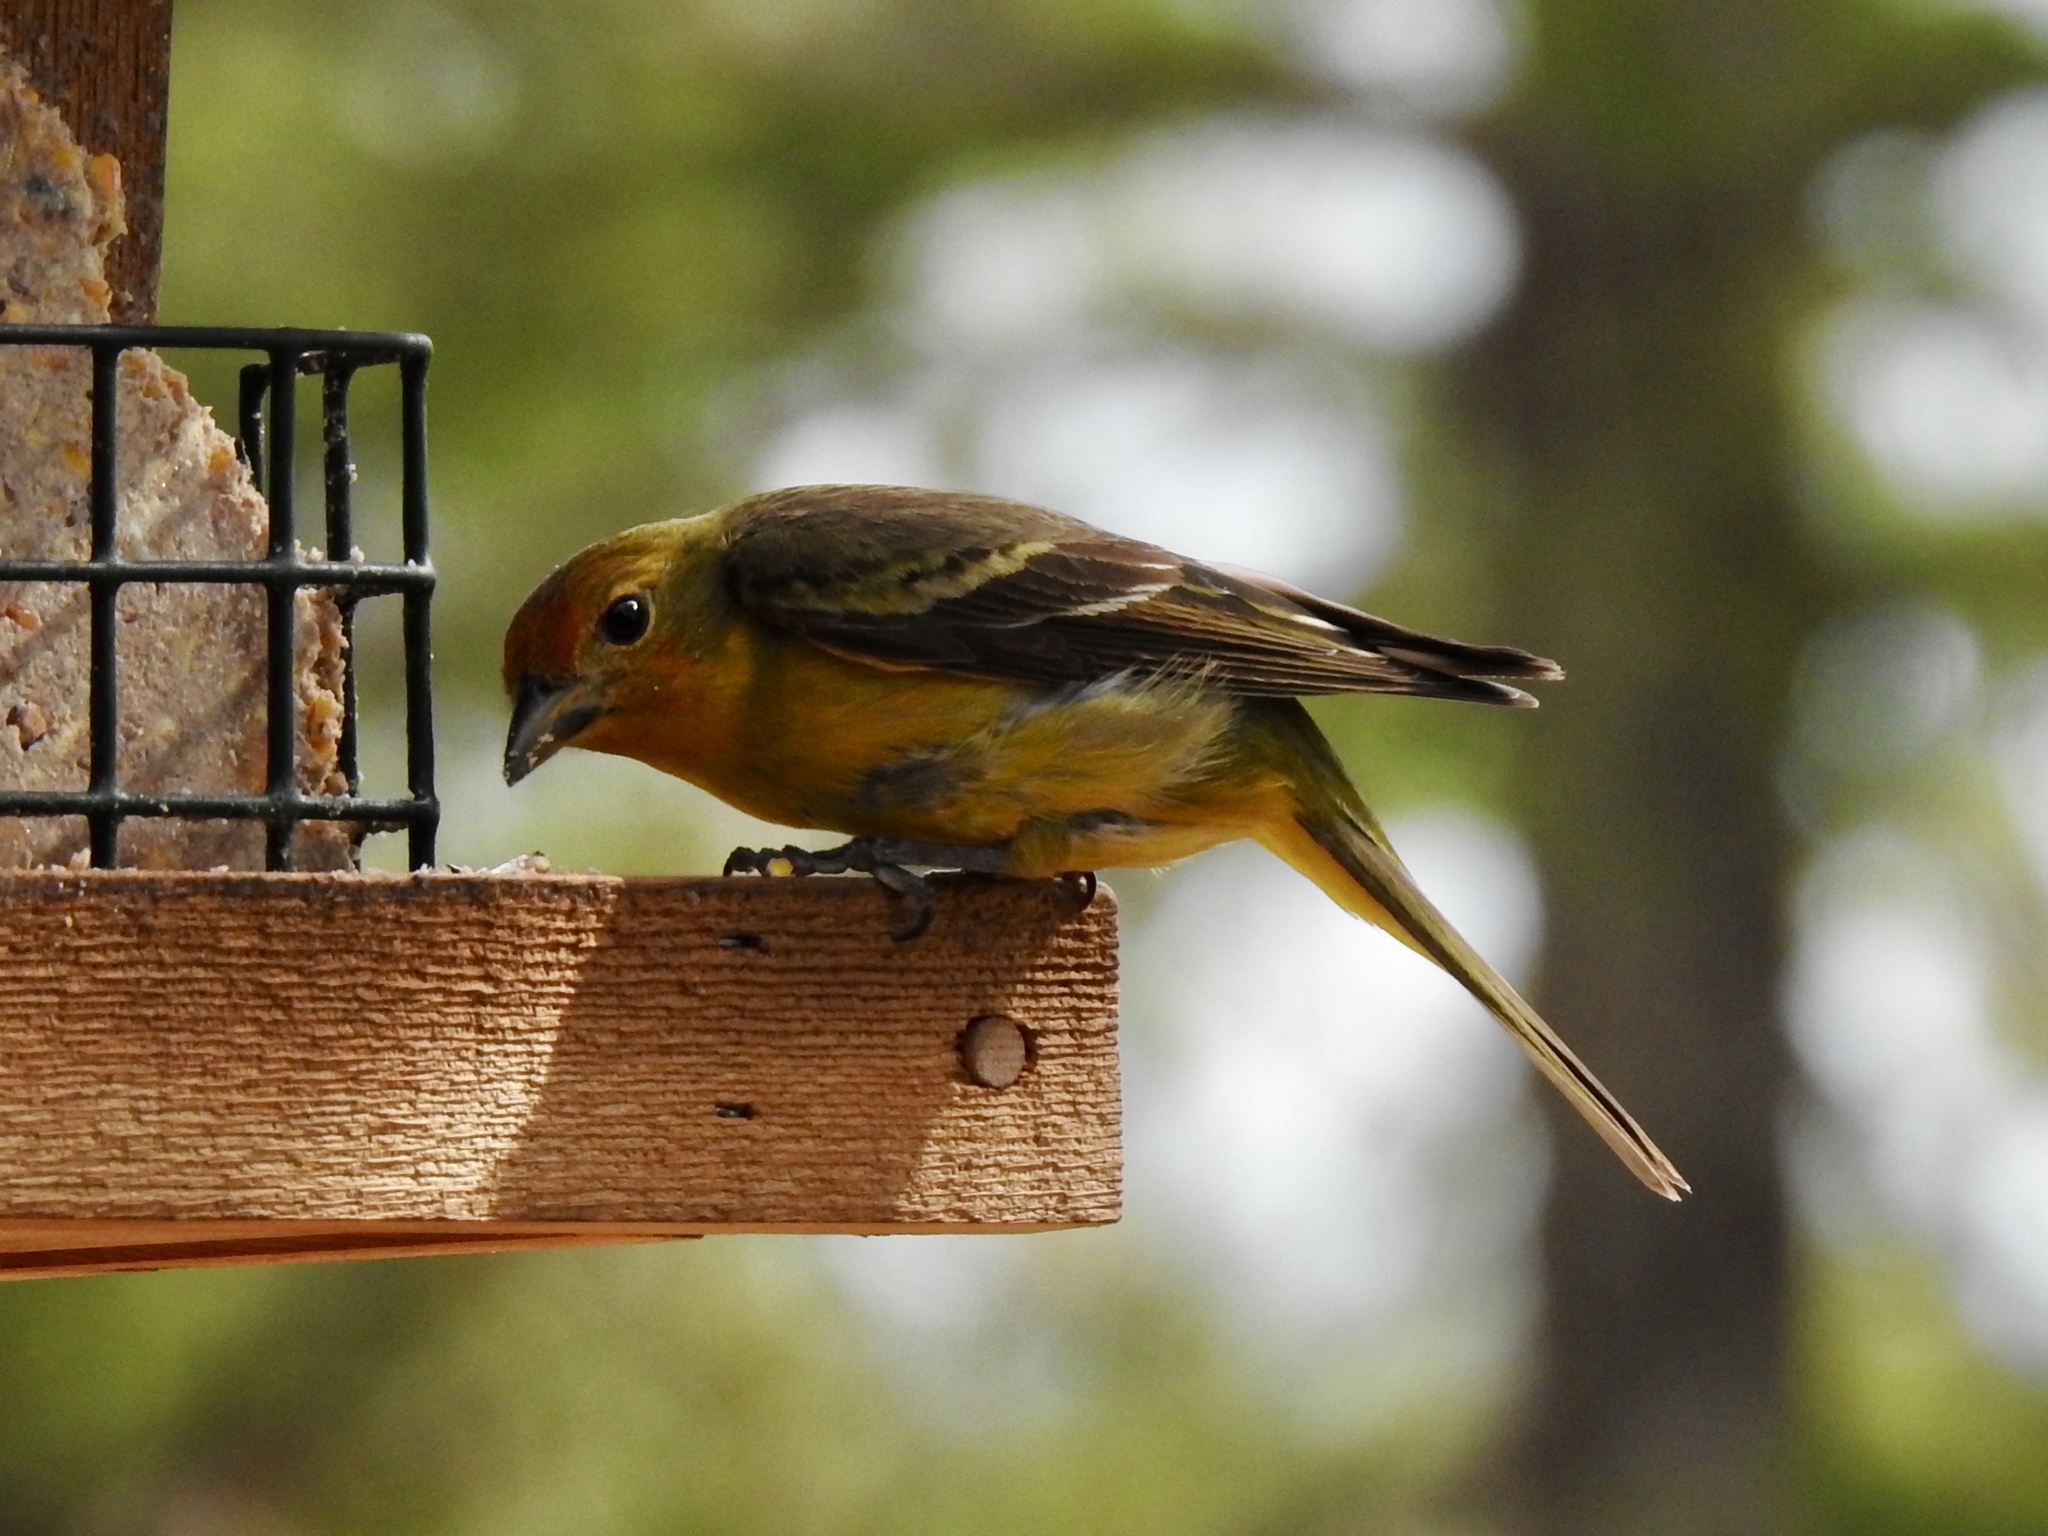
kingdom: Animalia
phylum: Chordata
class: Aves
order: Passeriformes
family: Cardinalidae
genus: Piranga
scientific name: Piranga ludoviciana
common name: Western tanager
